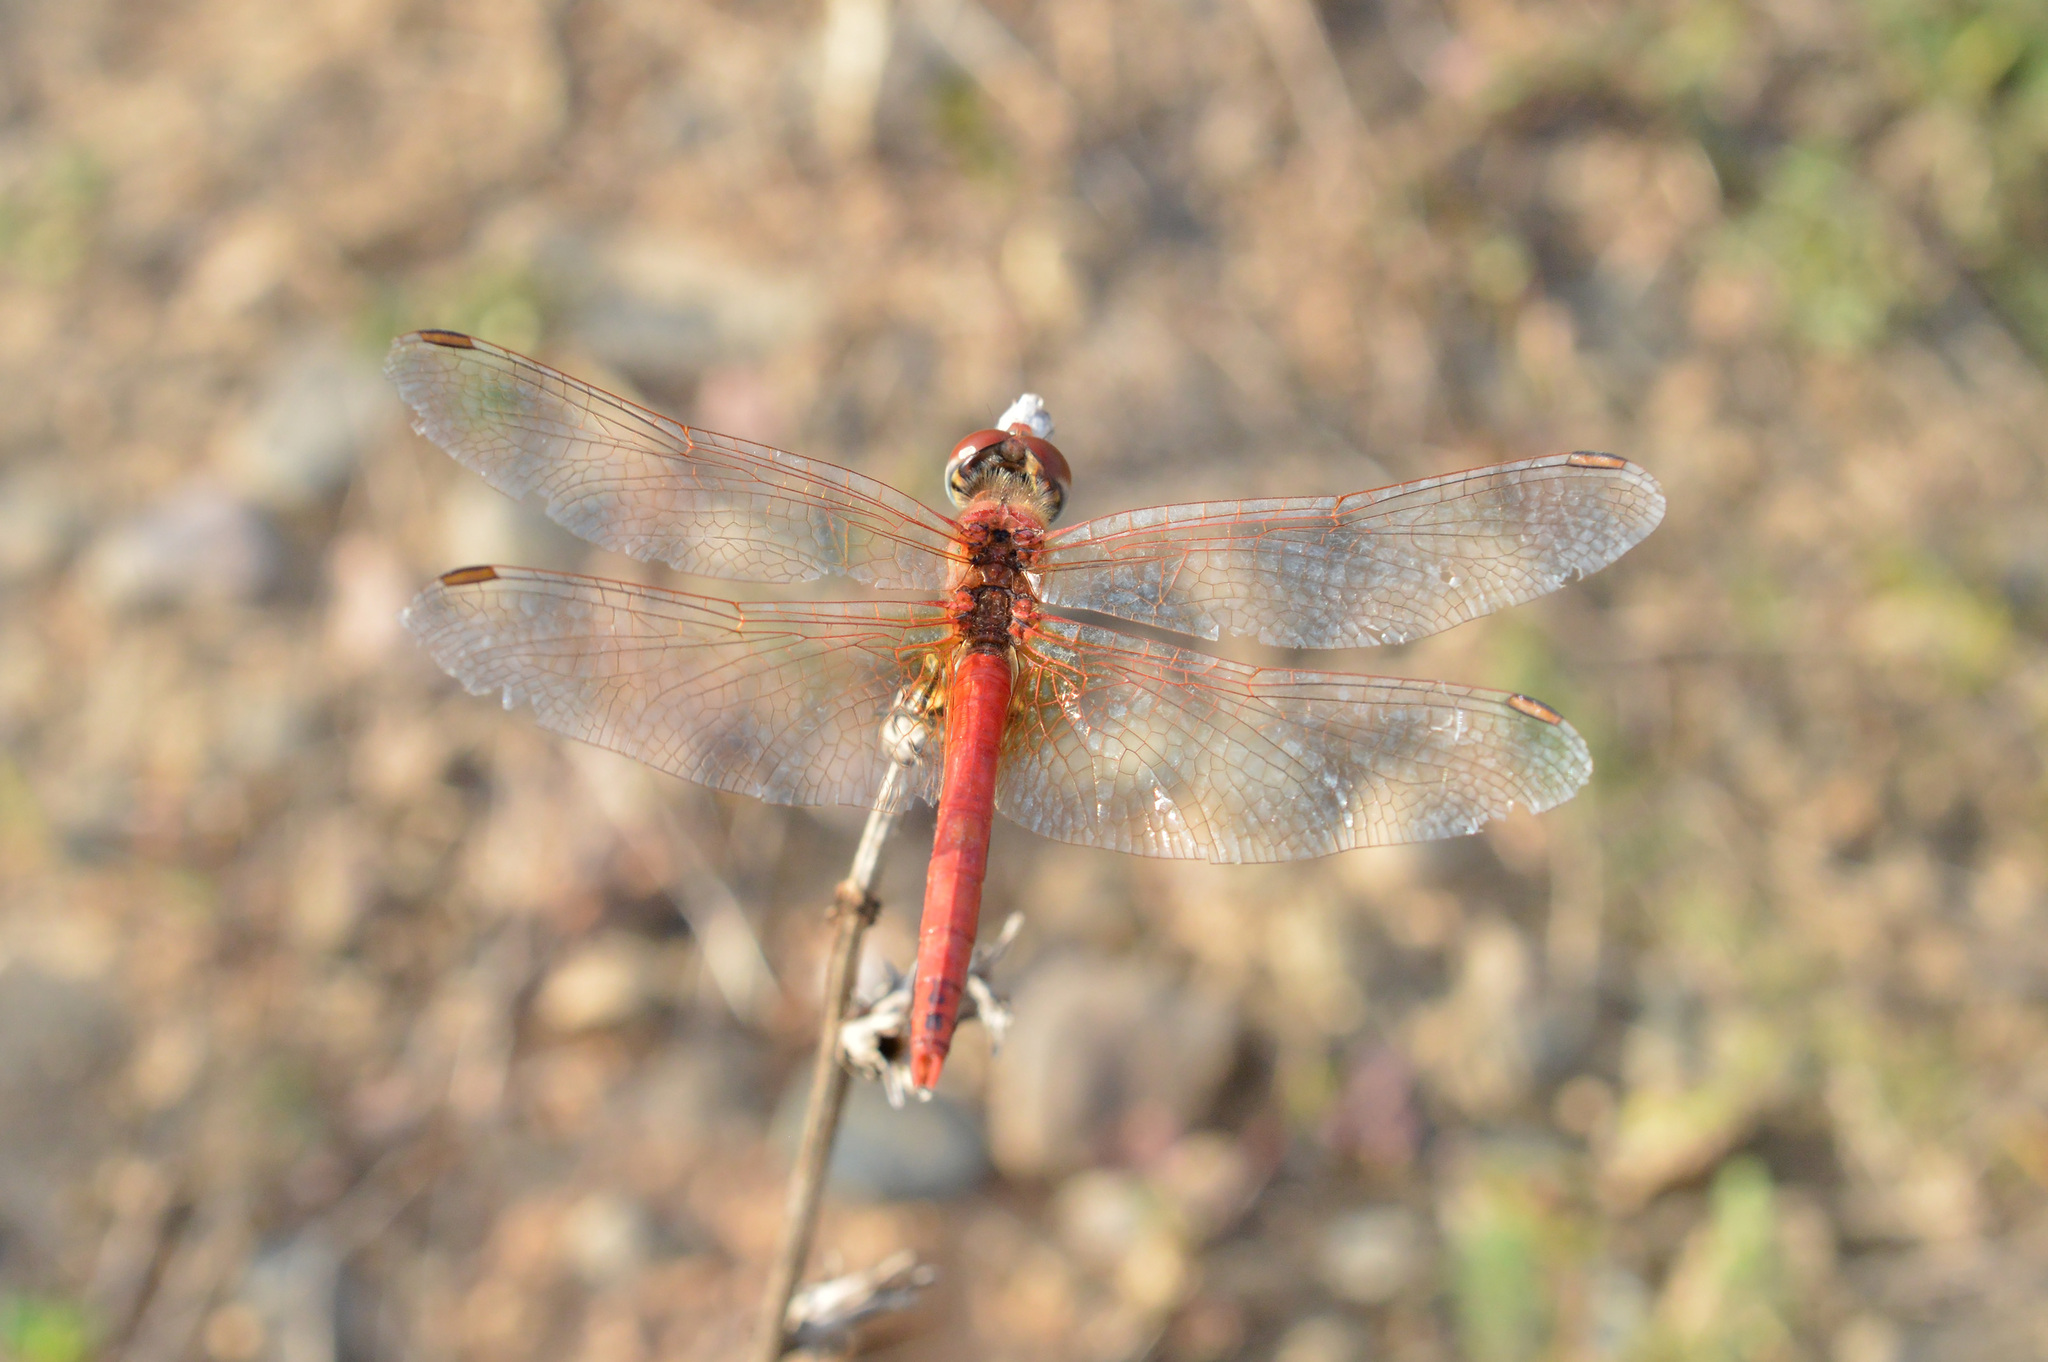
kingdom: Animalia
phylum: Arthropoda
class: Insecta
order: Odonata
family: Libellulidae
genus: Sympetrum
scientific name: Sympetrum fonscolombii
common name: Red-veined darter
